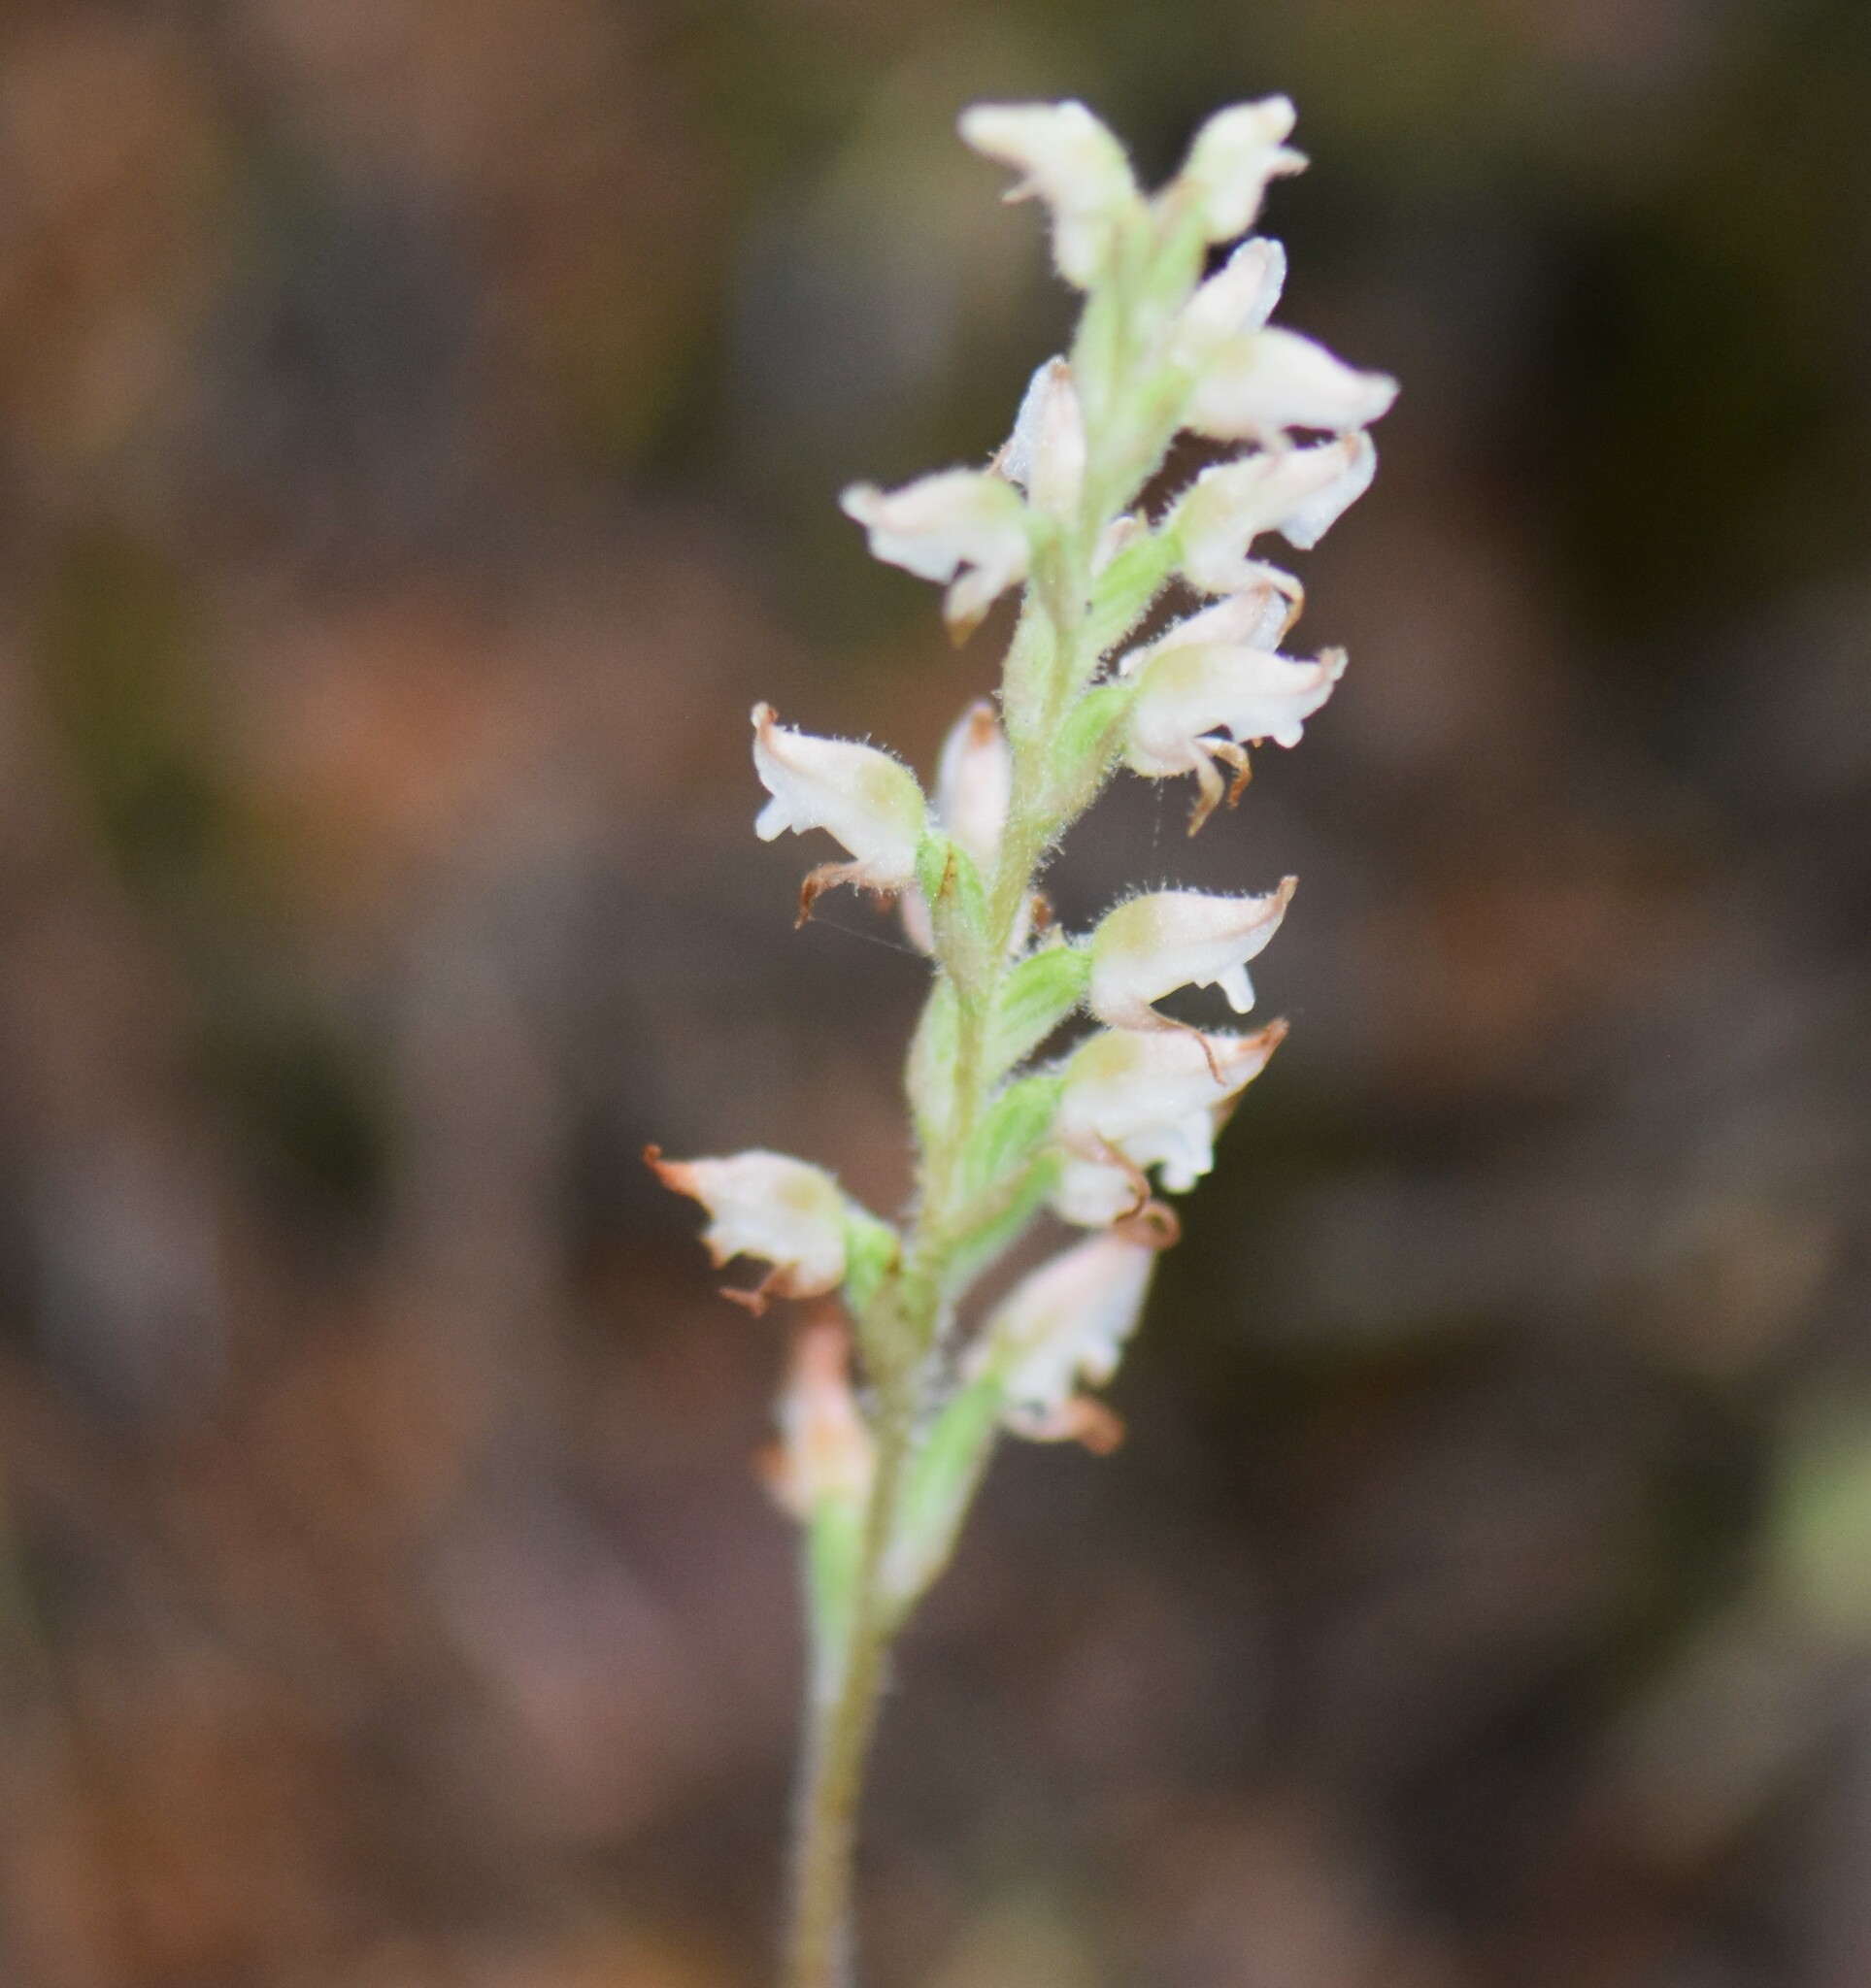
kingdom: Plantae
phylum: Tracheophyta
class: Liliopsida
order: Asparagales
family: Orchidaceae
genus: Goodyera
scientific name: Goodyera oblongifolia
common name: Giant rattlesnake-plantain
